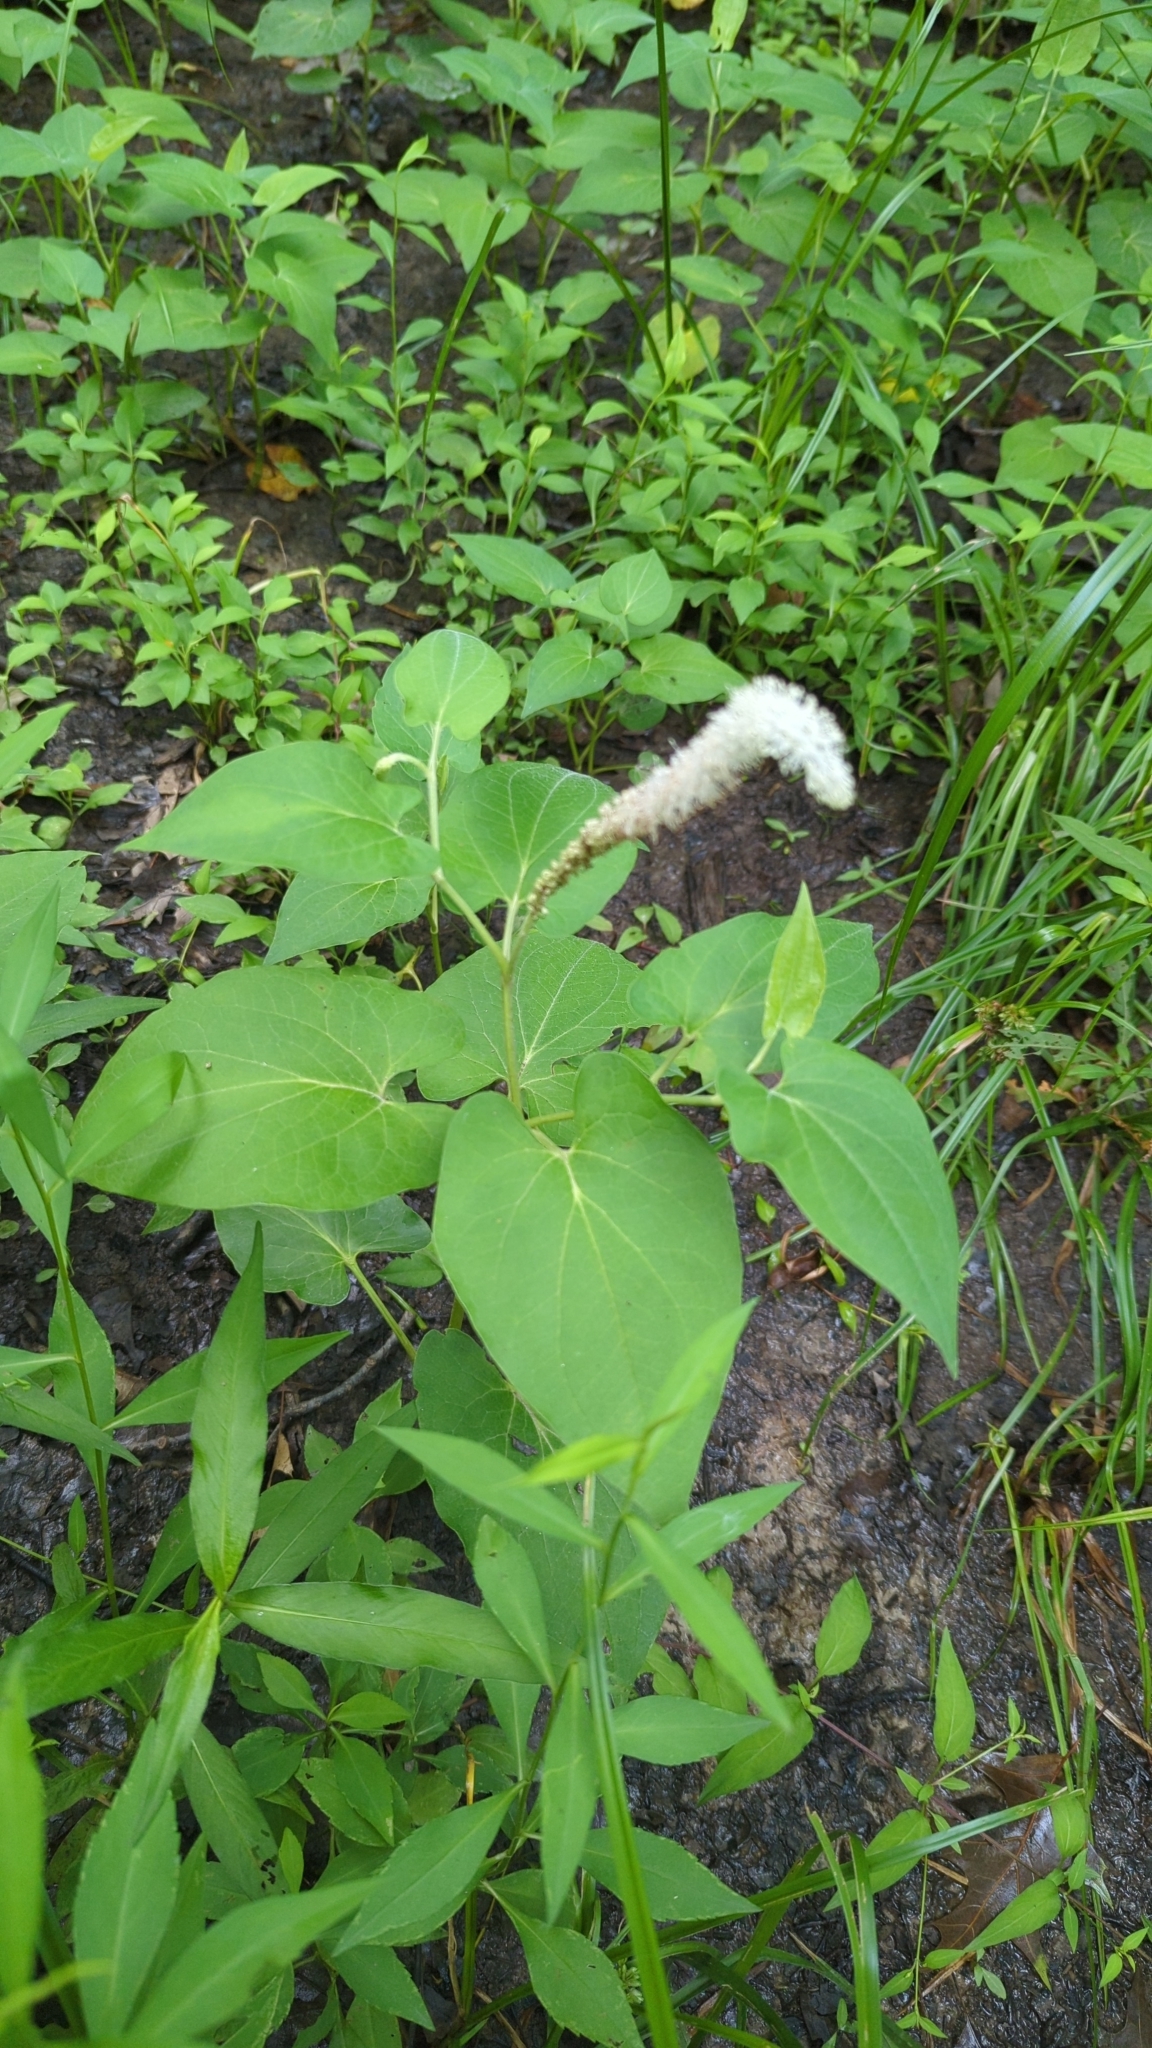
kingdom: Plantae
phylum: Tracheophyta
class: Magnoliopsida
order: Piperales
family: Saururaceae
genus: Saururus
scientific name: Saururus cernuus
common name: Lizard's-tail
